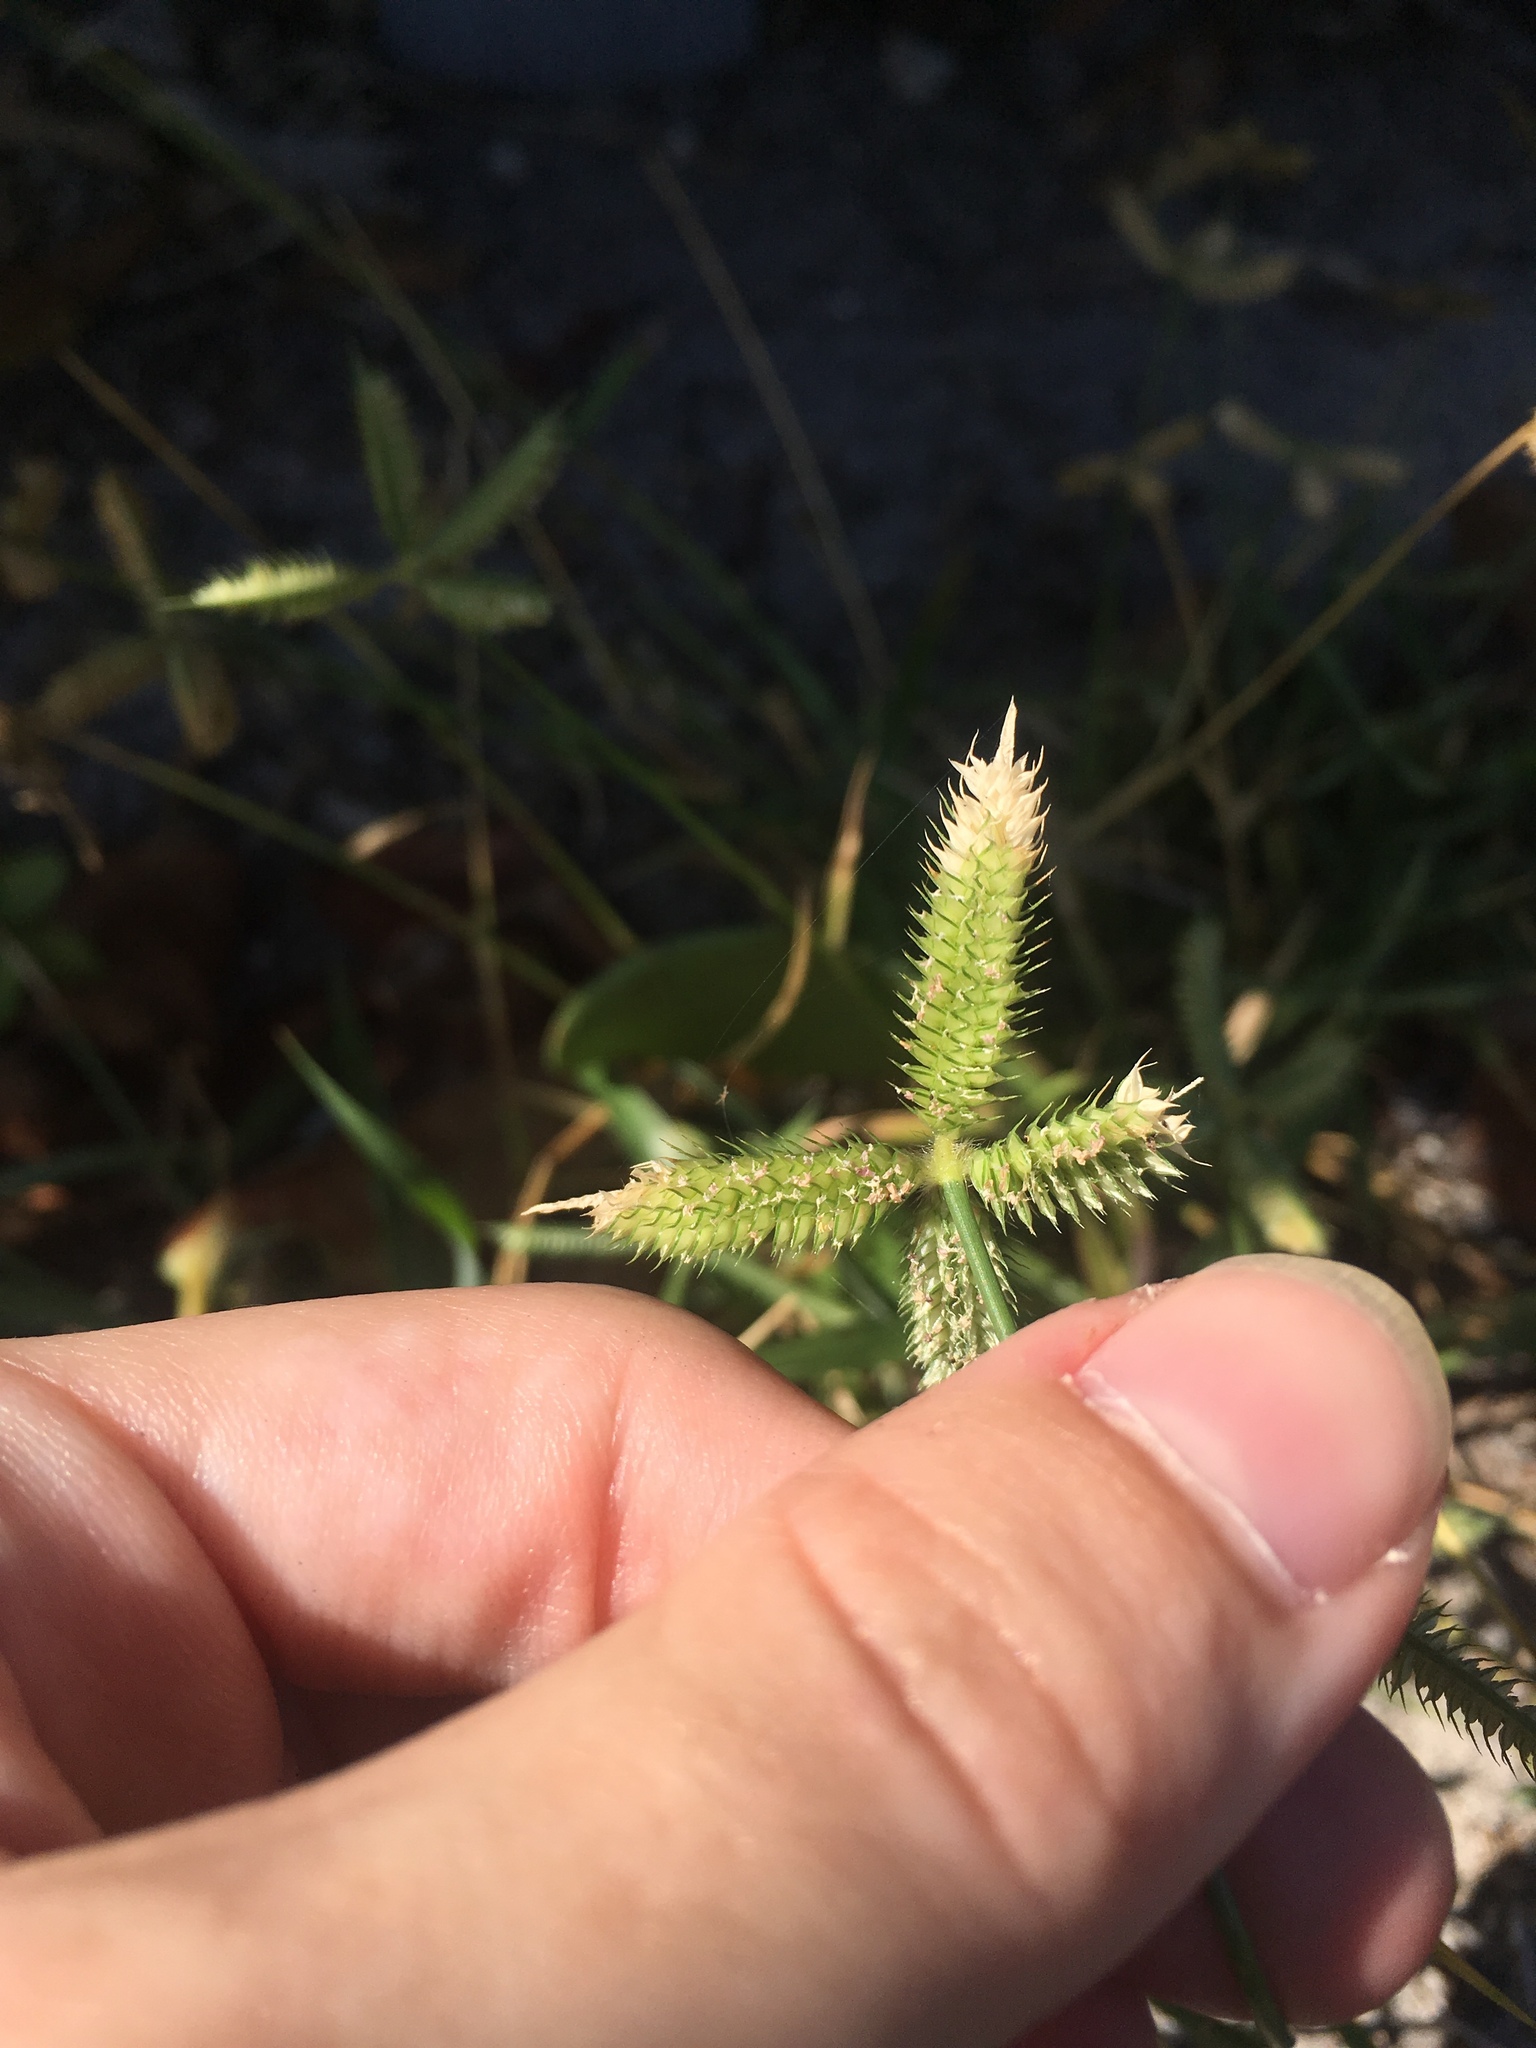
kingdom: Plantae
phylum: Tracheophyta
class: Liliopsida
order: Poales
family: Poaceae
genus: Dactyloctenium
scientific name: Dactyloctenium aegyptium
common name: Egyptian grass
